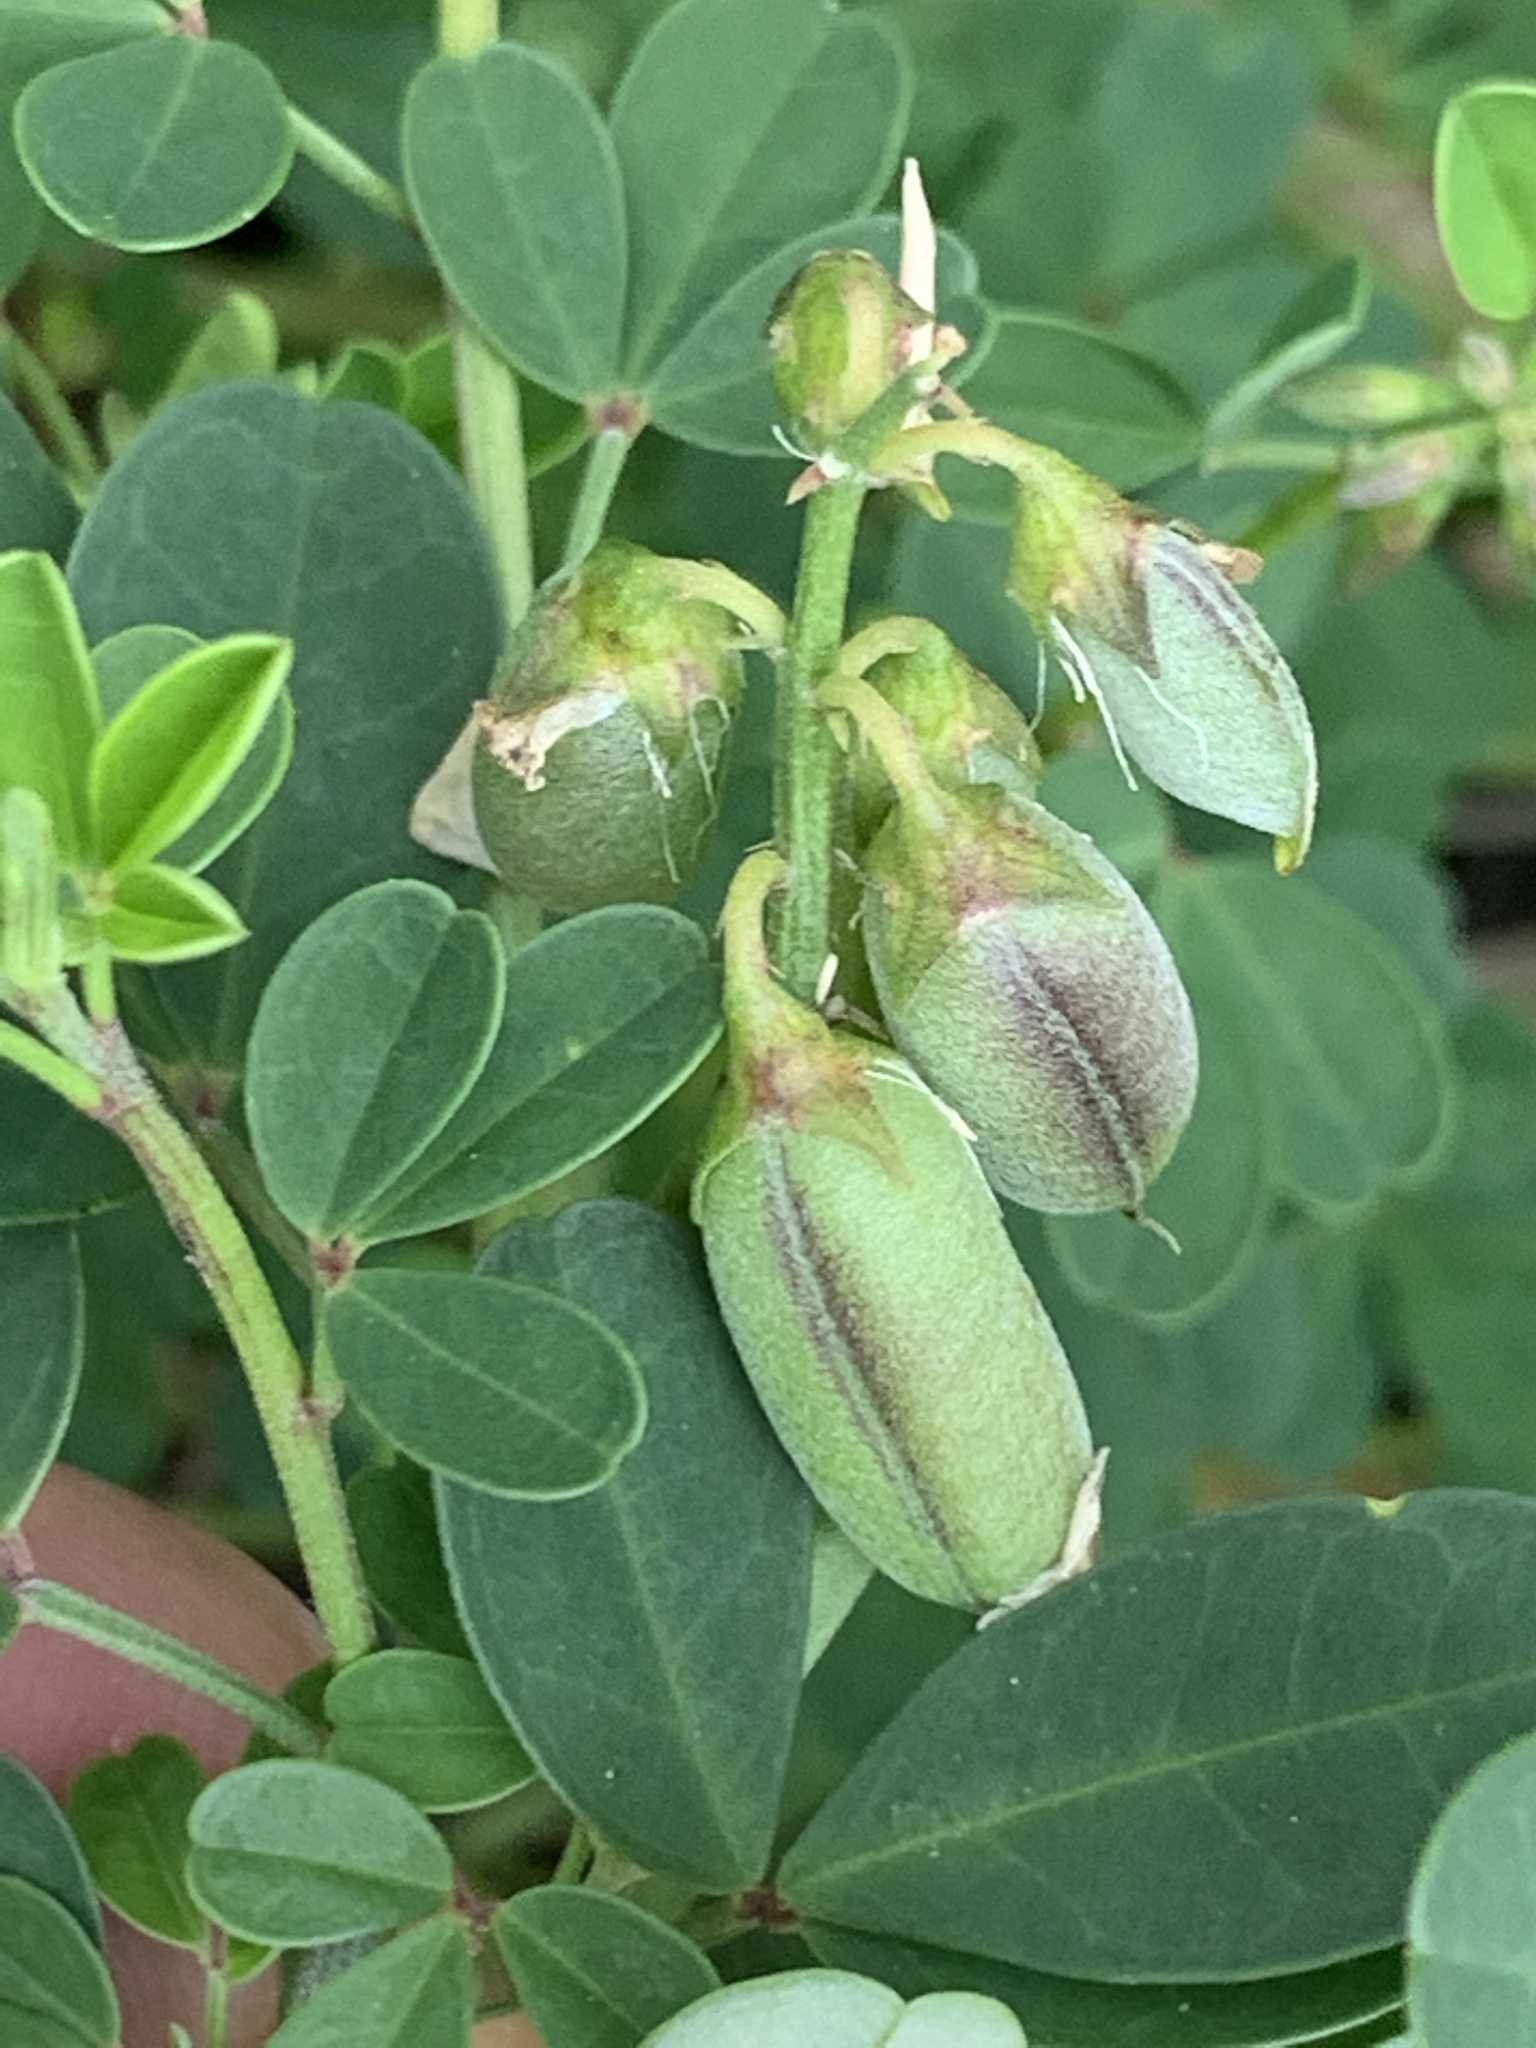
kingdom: Plantae
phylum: Tracheophyta
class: Magnoliopsida
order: Fabales
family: Fabaceae
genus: Crotalaria
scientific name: Crotalaria pumila
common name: Low rattlebox
